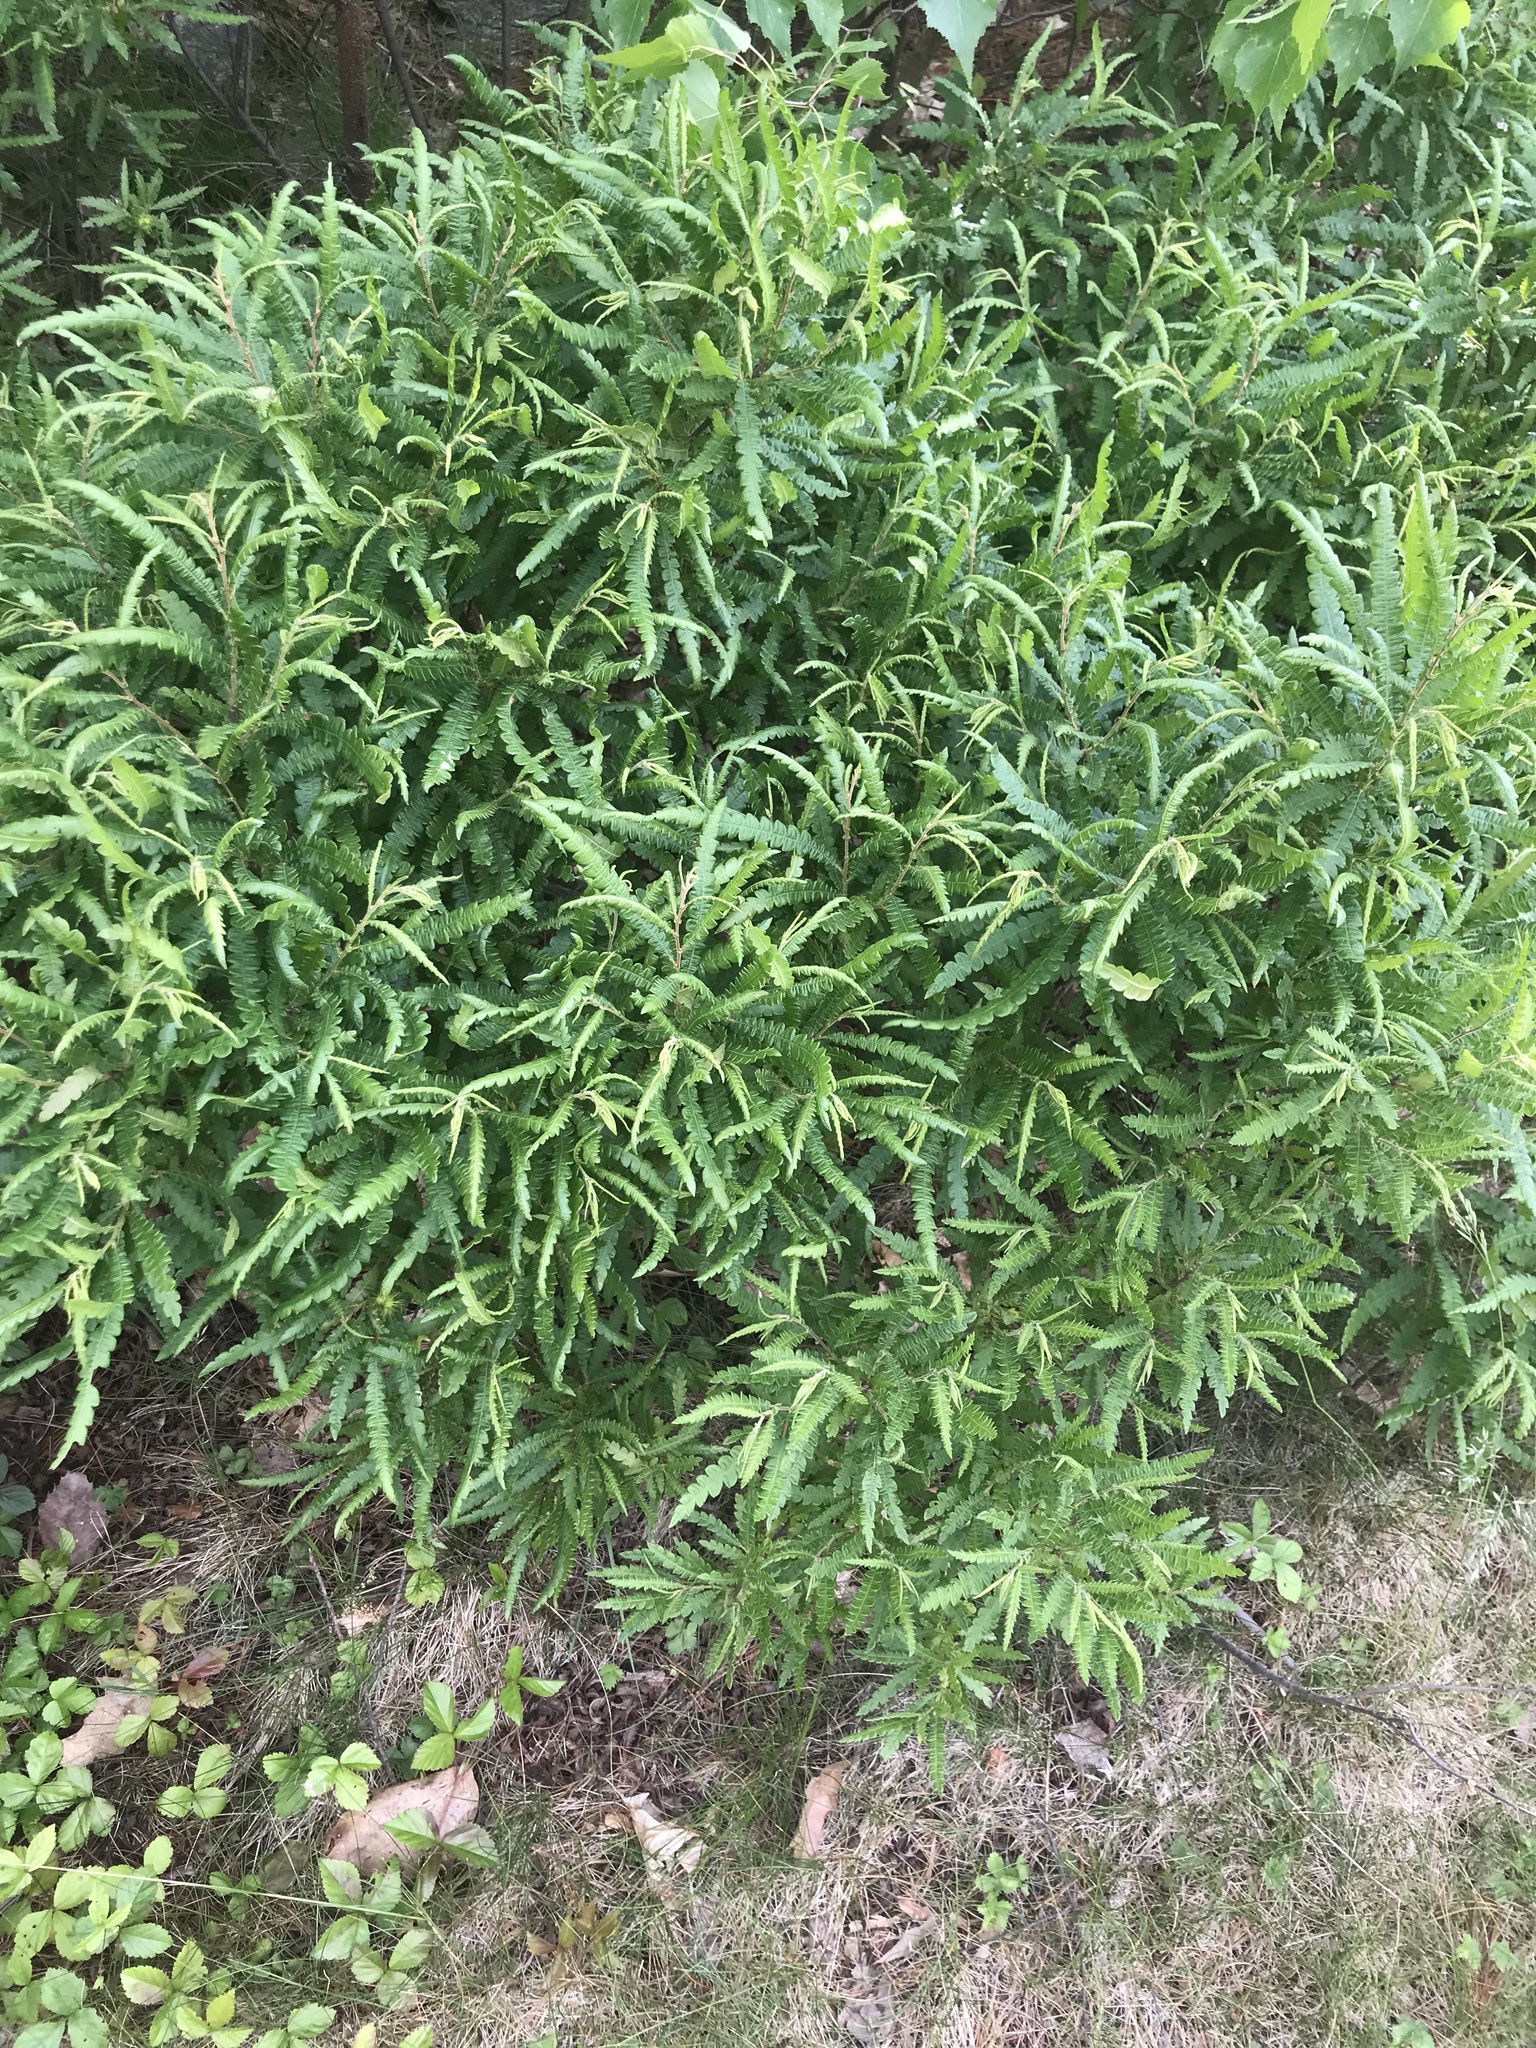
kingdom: Plantae
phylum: Tracheophyta
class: Magnoliopsida
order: Fagales
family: Myricaceae
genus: Comptonia
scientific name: Comptonia peregrina
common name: Sweet-fern
